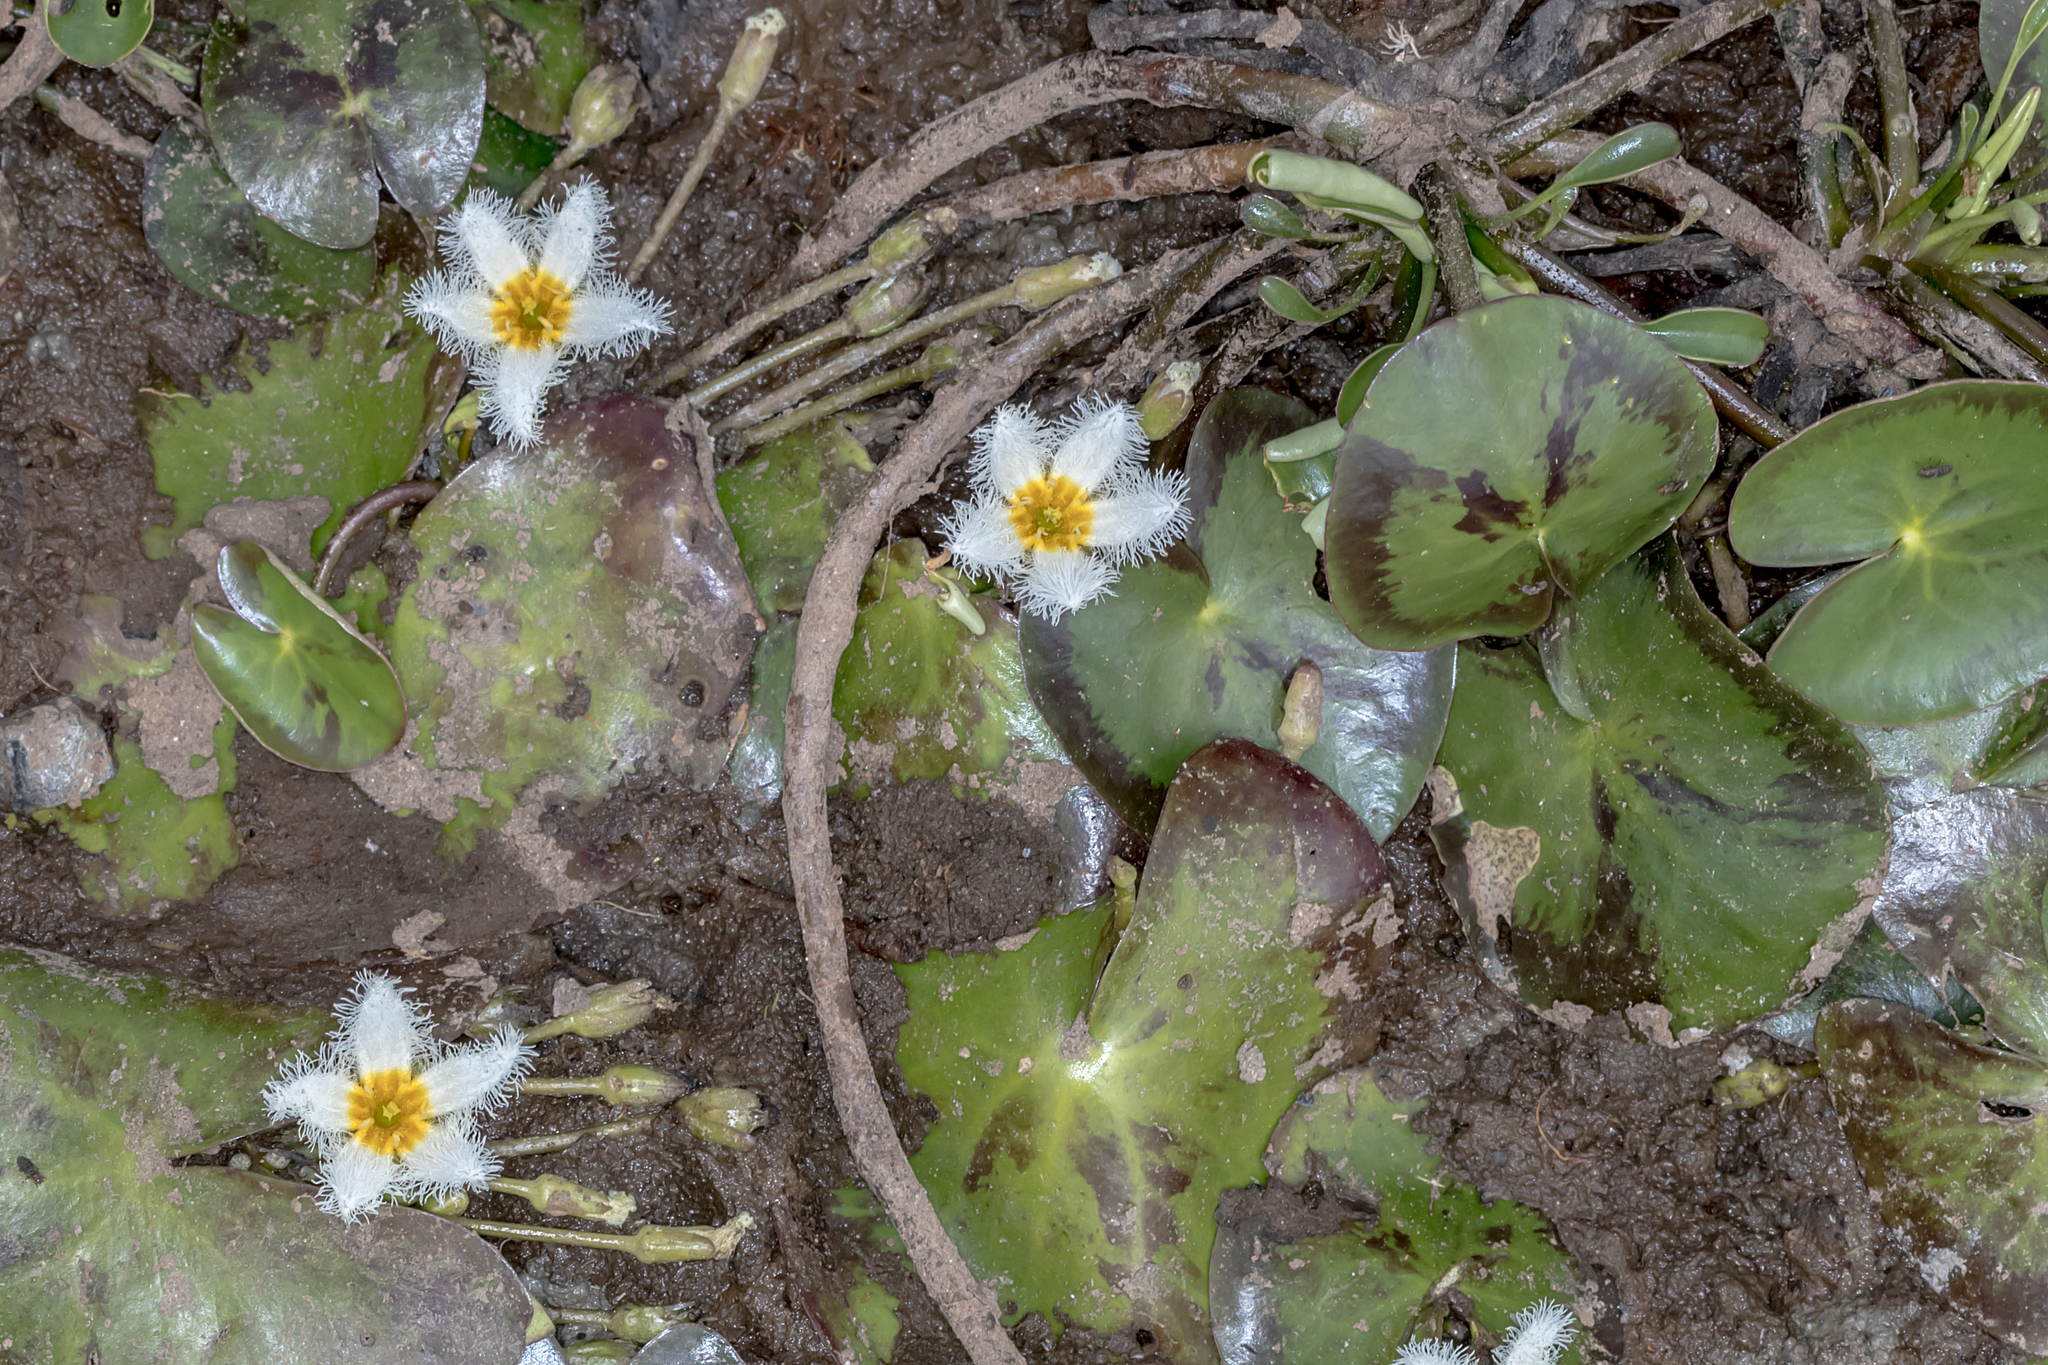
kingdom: Plantae
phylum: Tracheophyta
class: Magnoliopsida
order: Asterales
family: Menyanthaceae
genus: Nymphoides
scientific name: Nymphoides indica
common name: Water-snowflake
